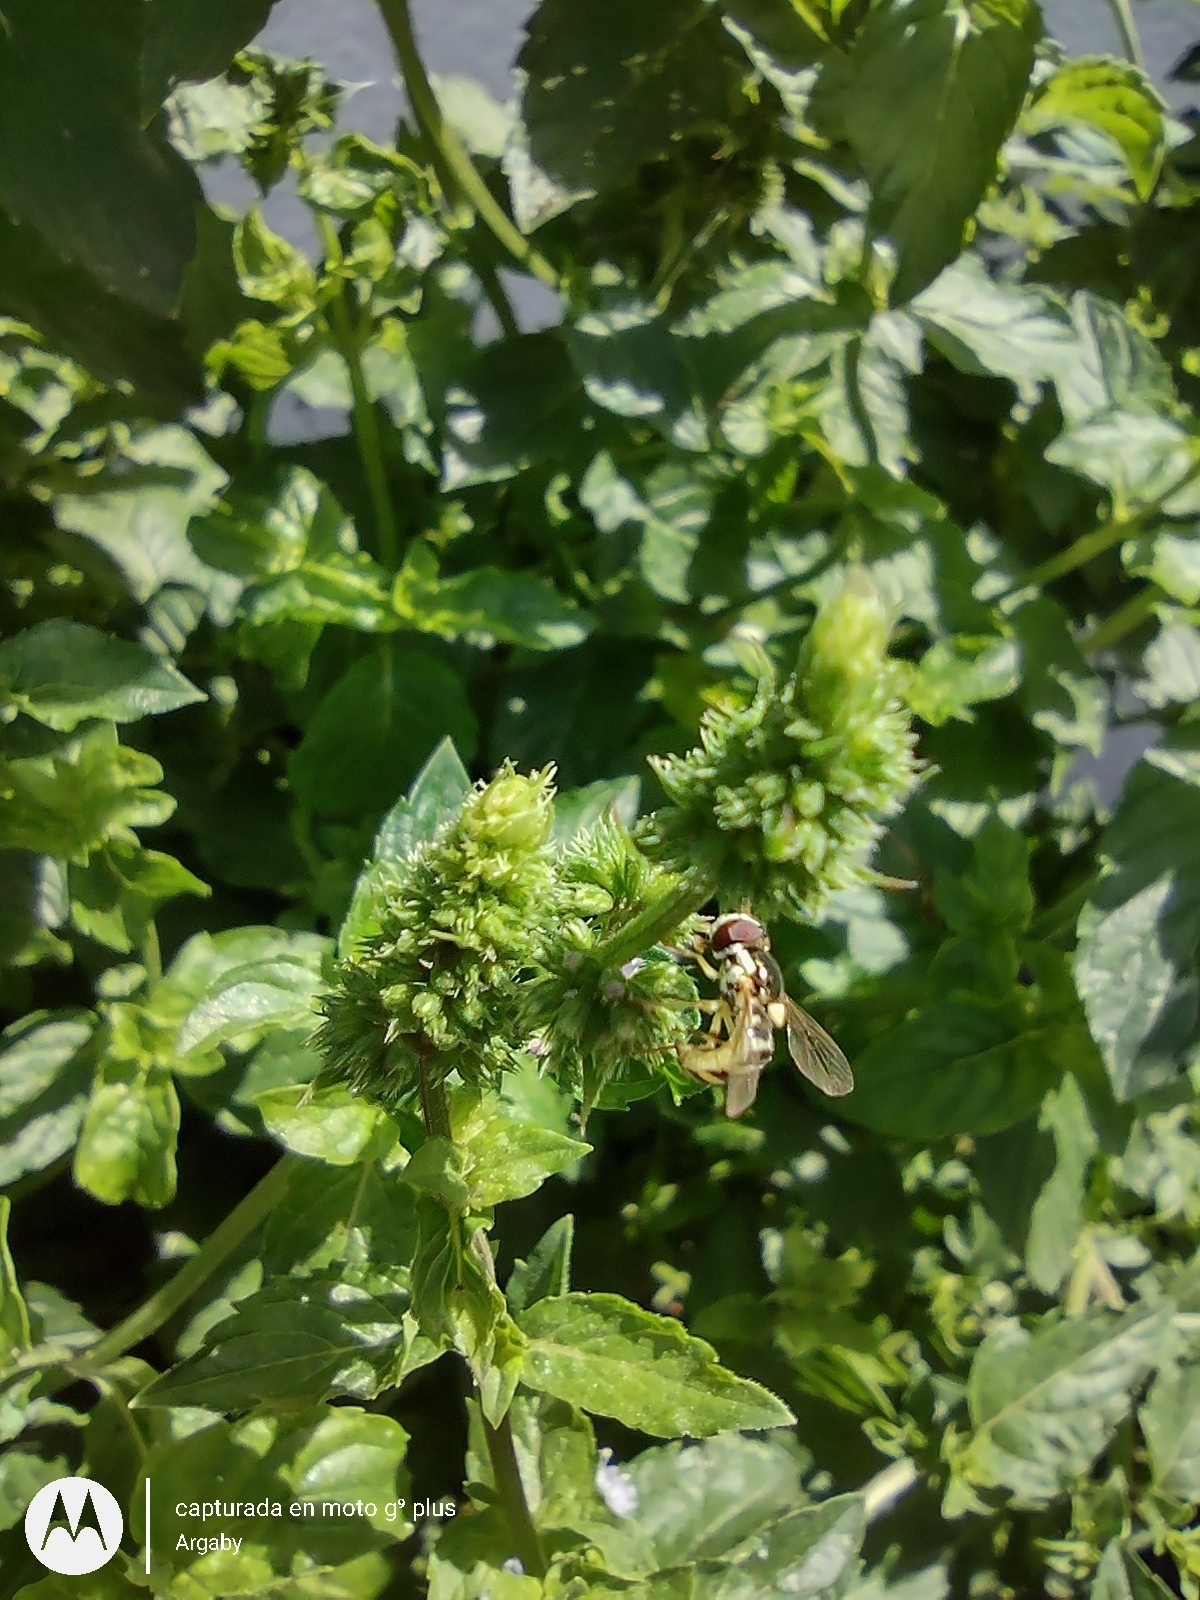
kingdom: Animalia
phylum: Arthropoda
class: Insecta
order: Diptera
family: Syrphidae
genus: Allograpta
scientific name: Allograpta exotica
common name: Syrphid fly
